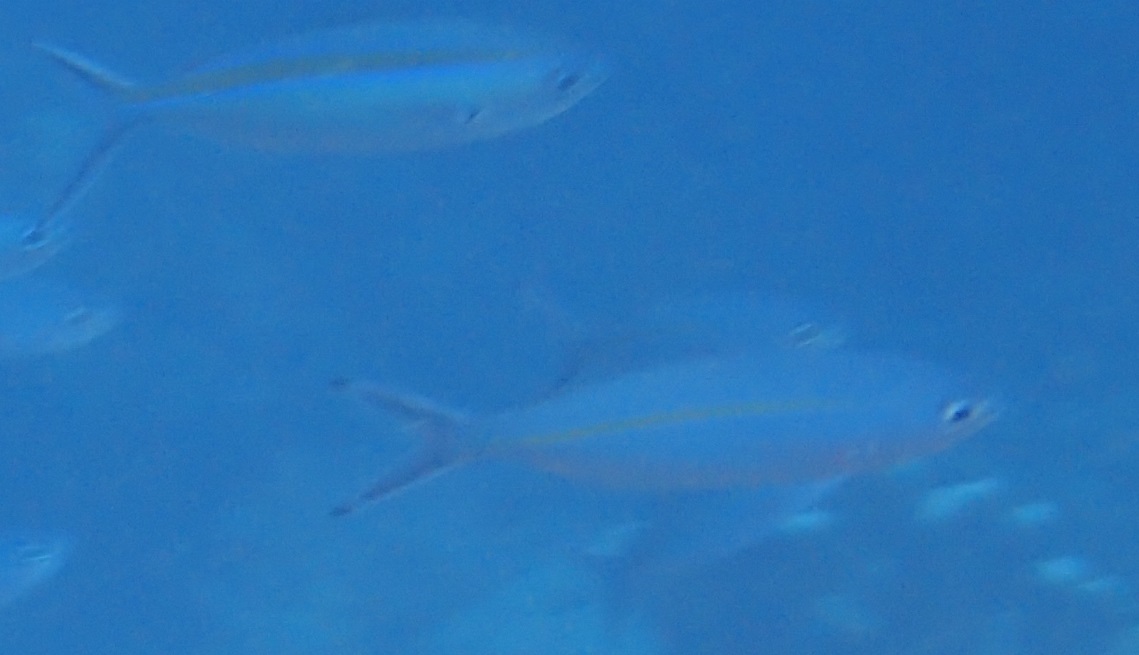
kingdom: Animalia
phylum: Chordata
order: Perciformes
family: Caesionidae
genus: Pterocaesio
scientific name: Pterocaesio tessellata
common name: One-stripe fusilier
